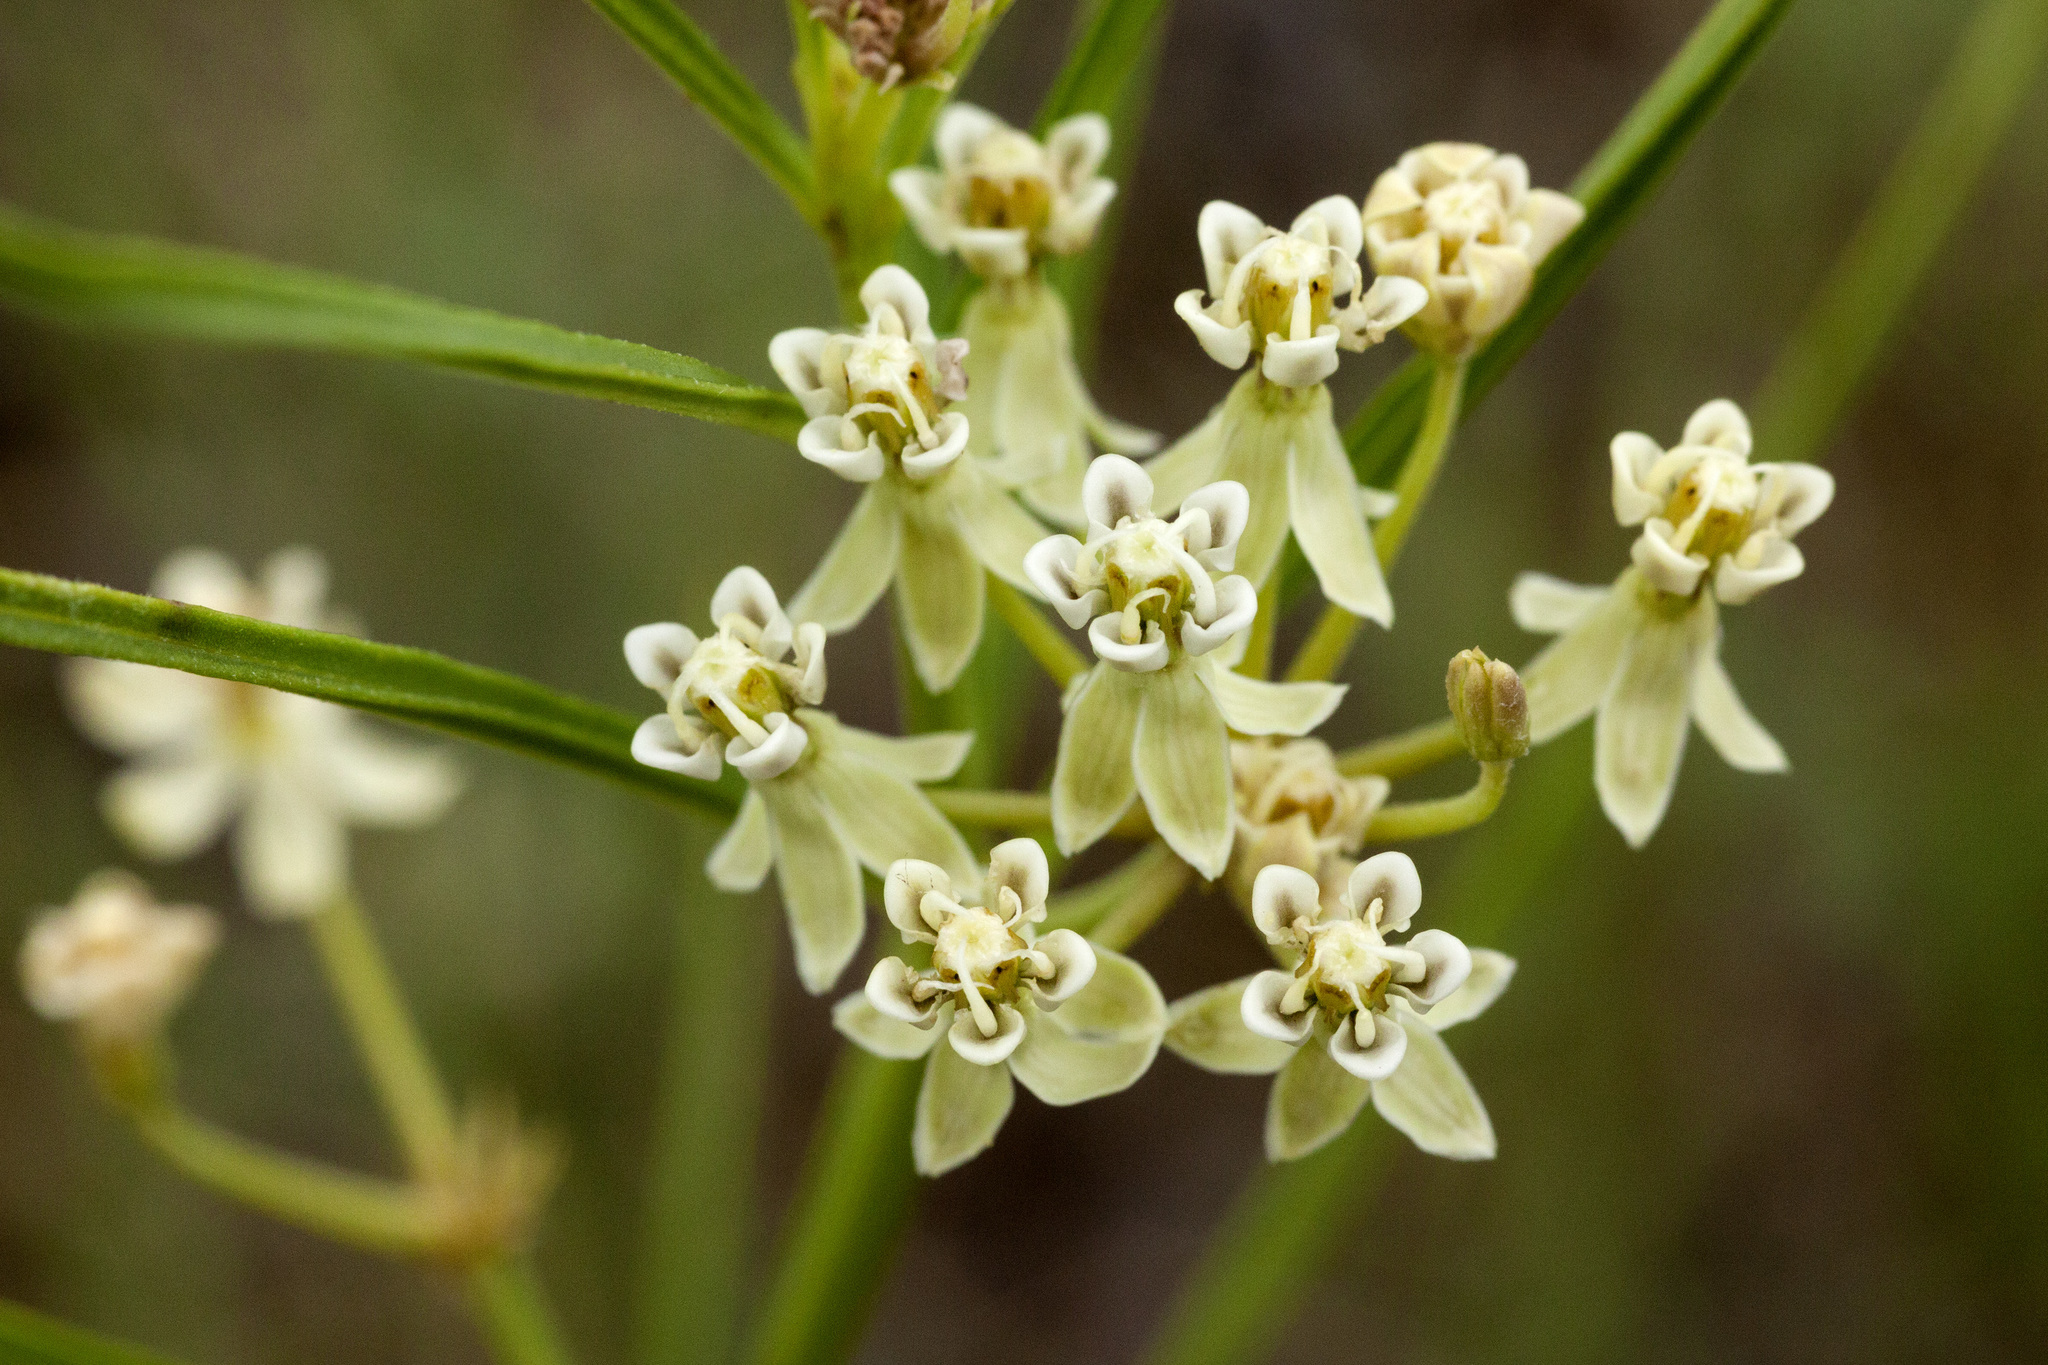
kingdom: Plantae
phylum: Tracheophyta
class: Magnoliopsida
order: Gentianales
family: Apocynaceae
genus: Asclepias
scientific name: Asclepias subverticillata
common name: Horsetail milkweed
